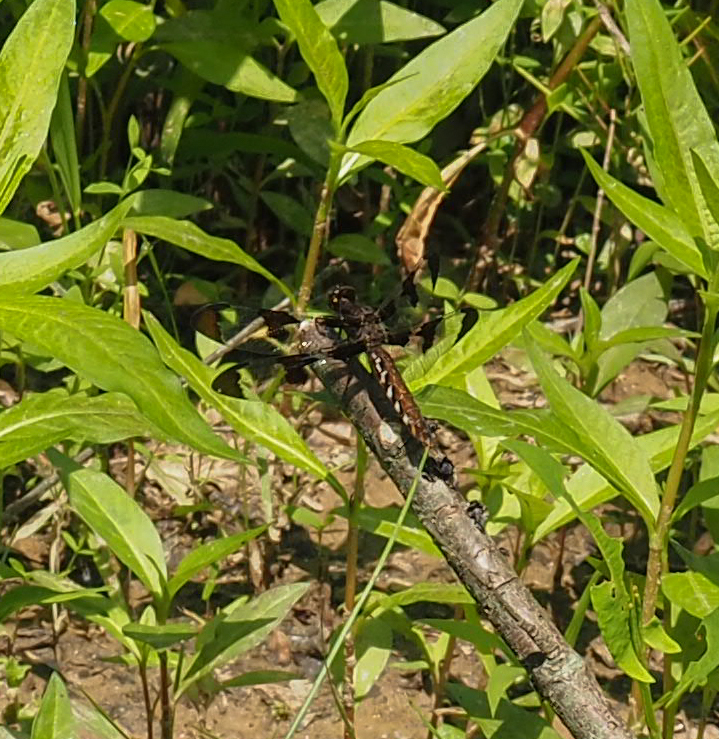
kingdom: Animalia
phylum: Arthropoda
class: Insecta
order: Odonata
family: Libellulidae
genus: Plathemis
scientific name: Plathemis lydia
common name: Common whitetail
